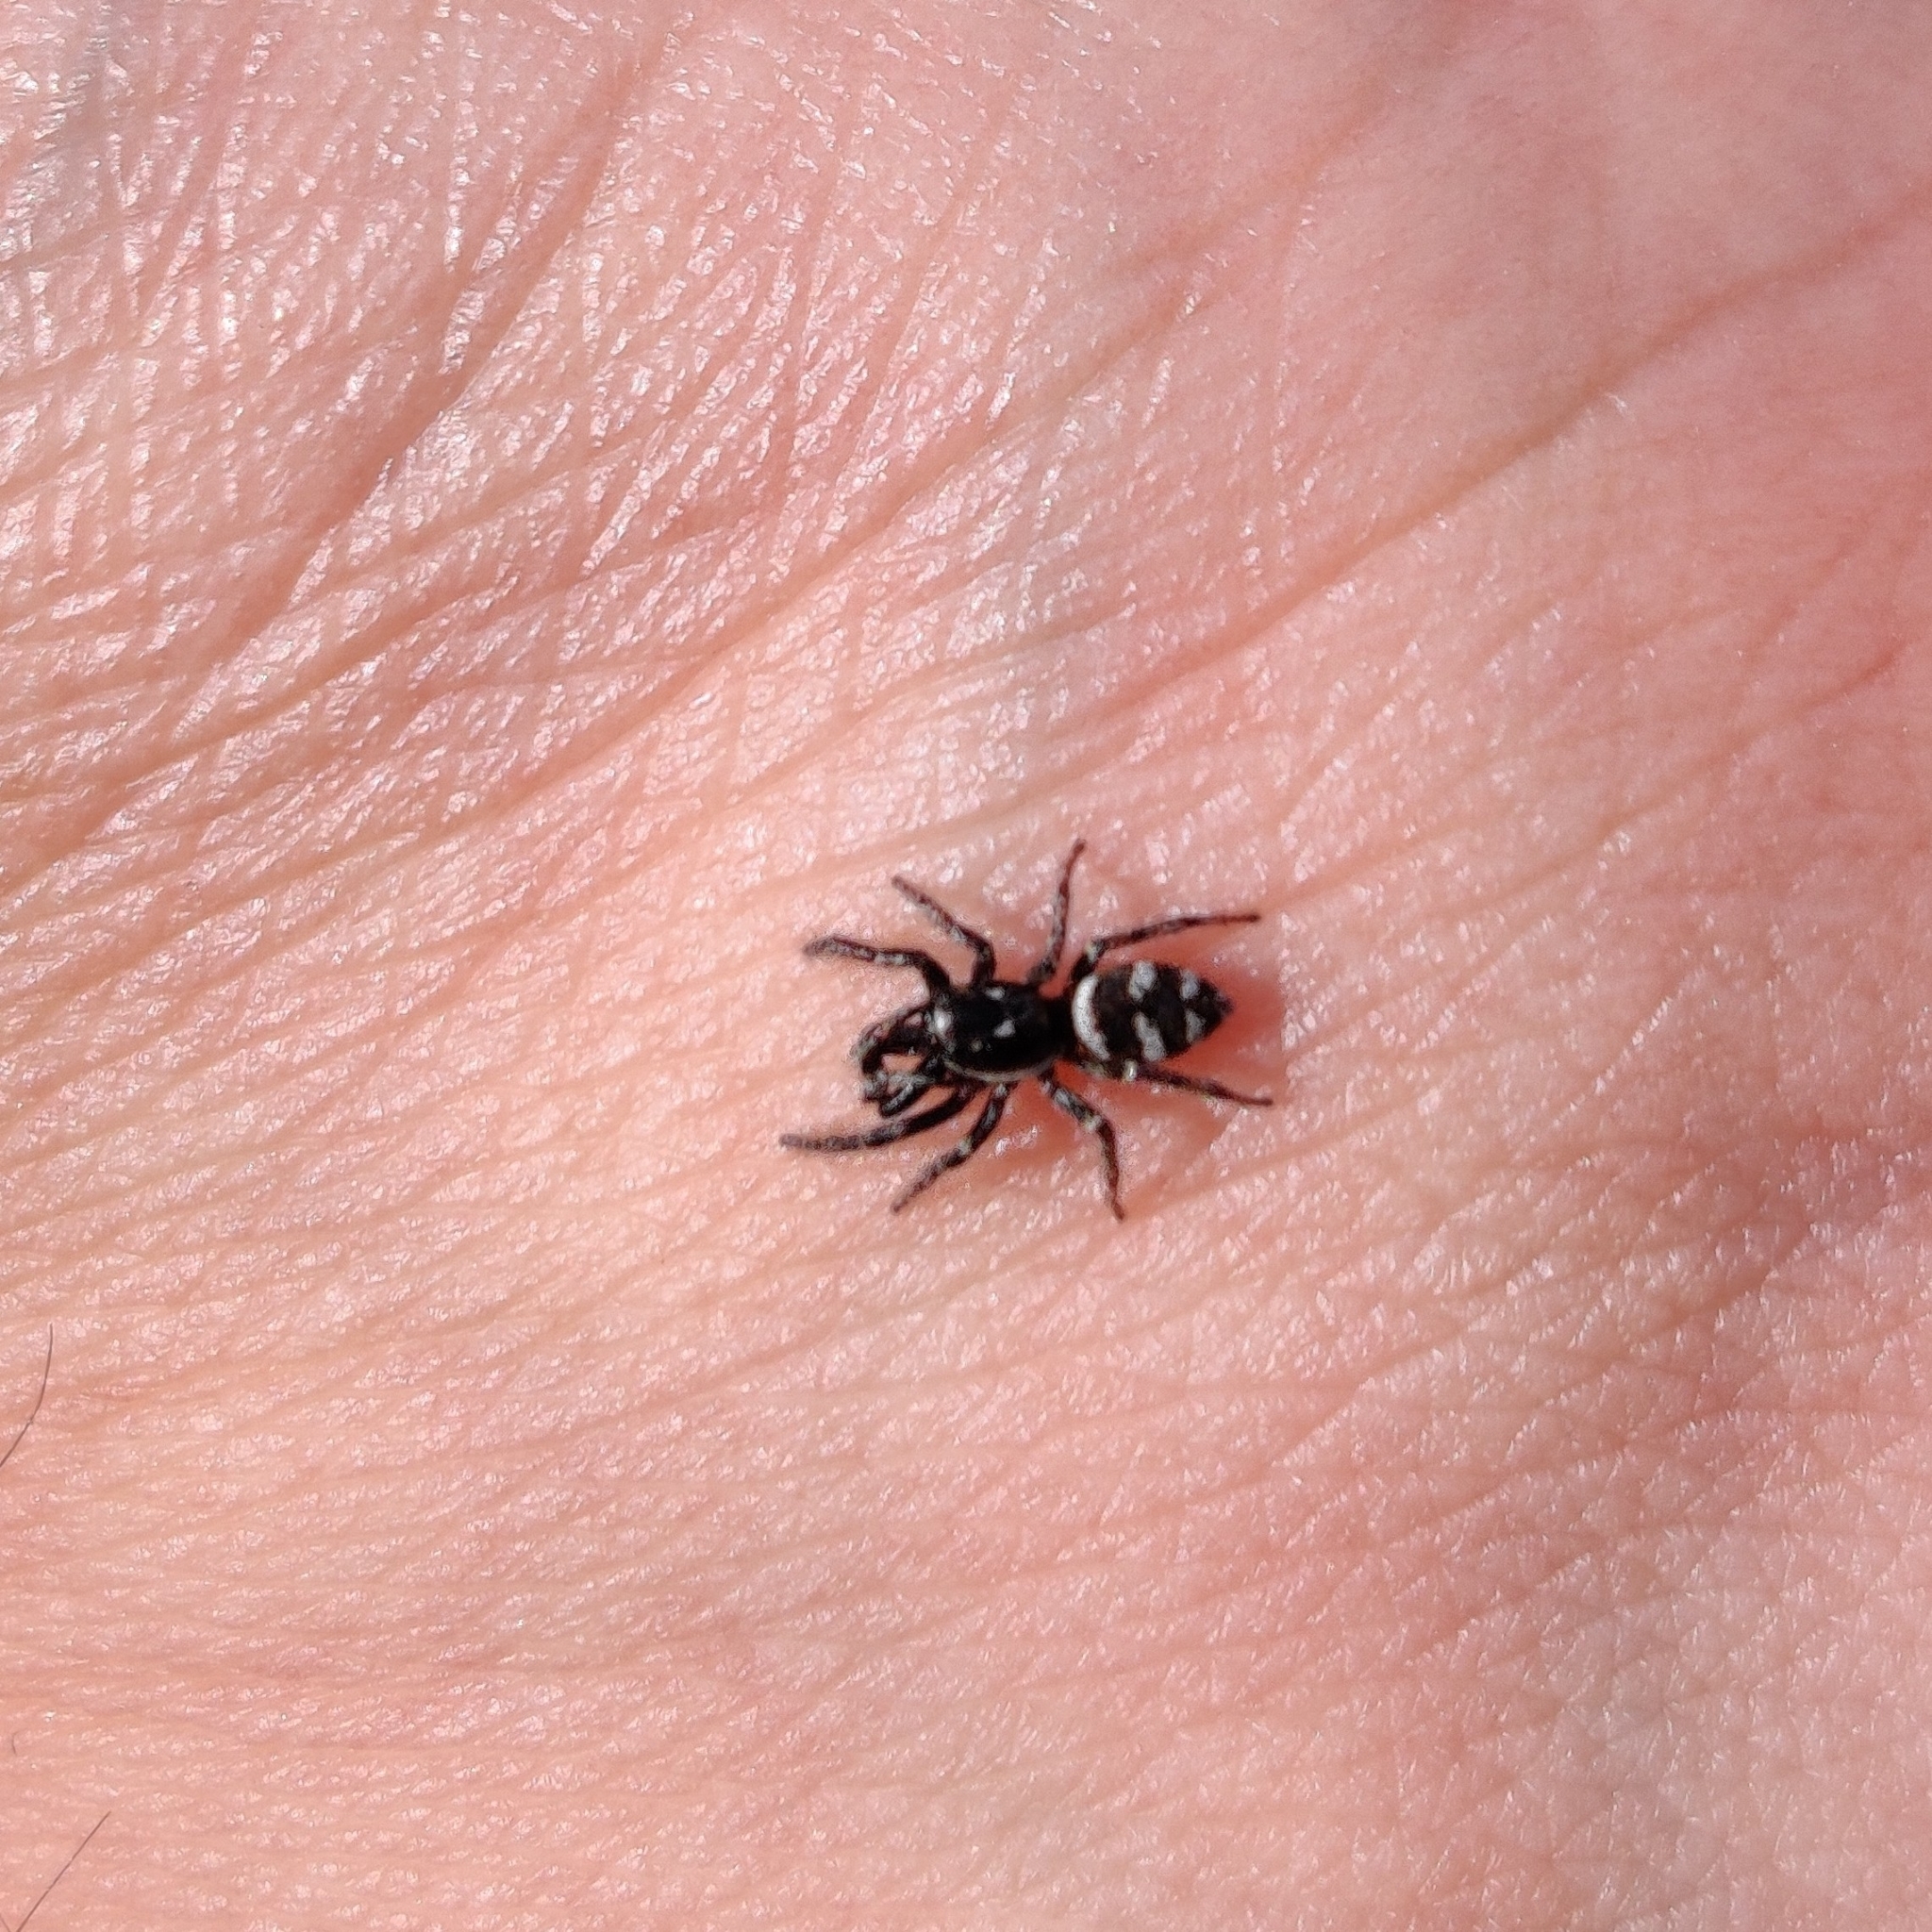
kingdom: Animalia
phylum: Arthropoda
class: Arachnida
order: Araneae
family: Salticidae
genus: Salticus
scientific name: Salticus scenicus
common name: Zebra jumper
